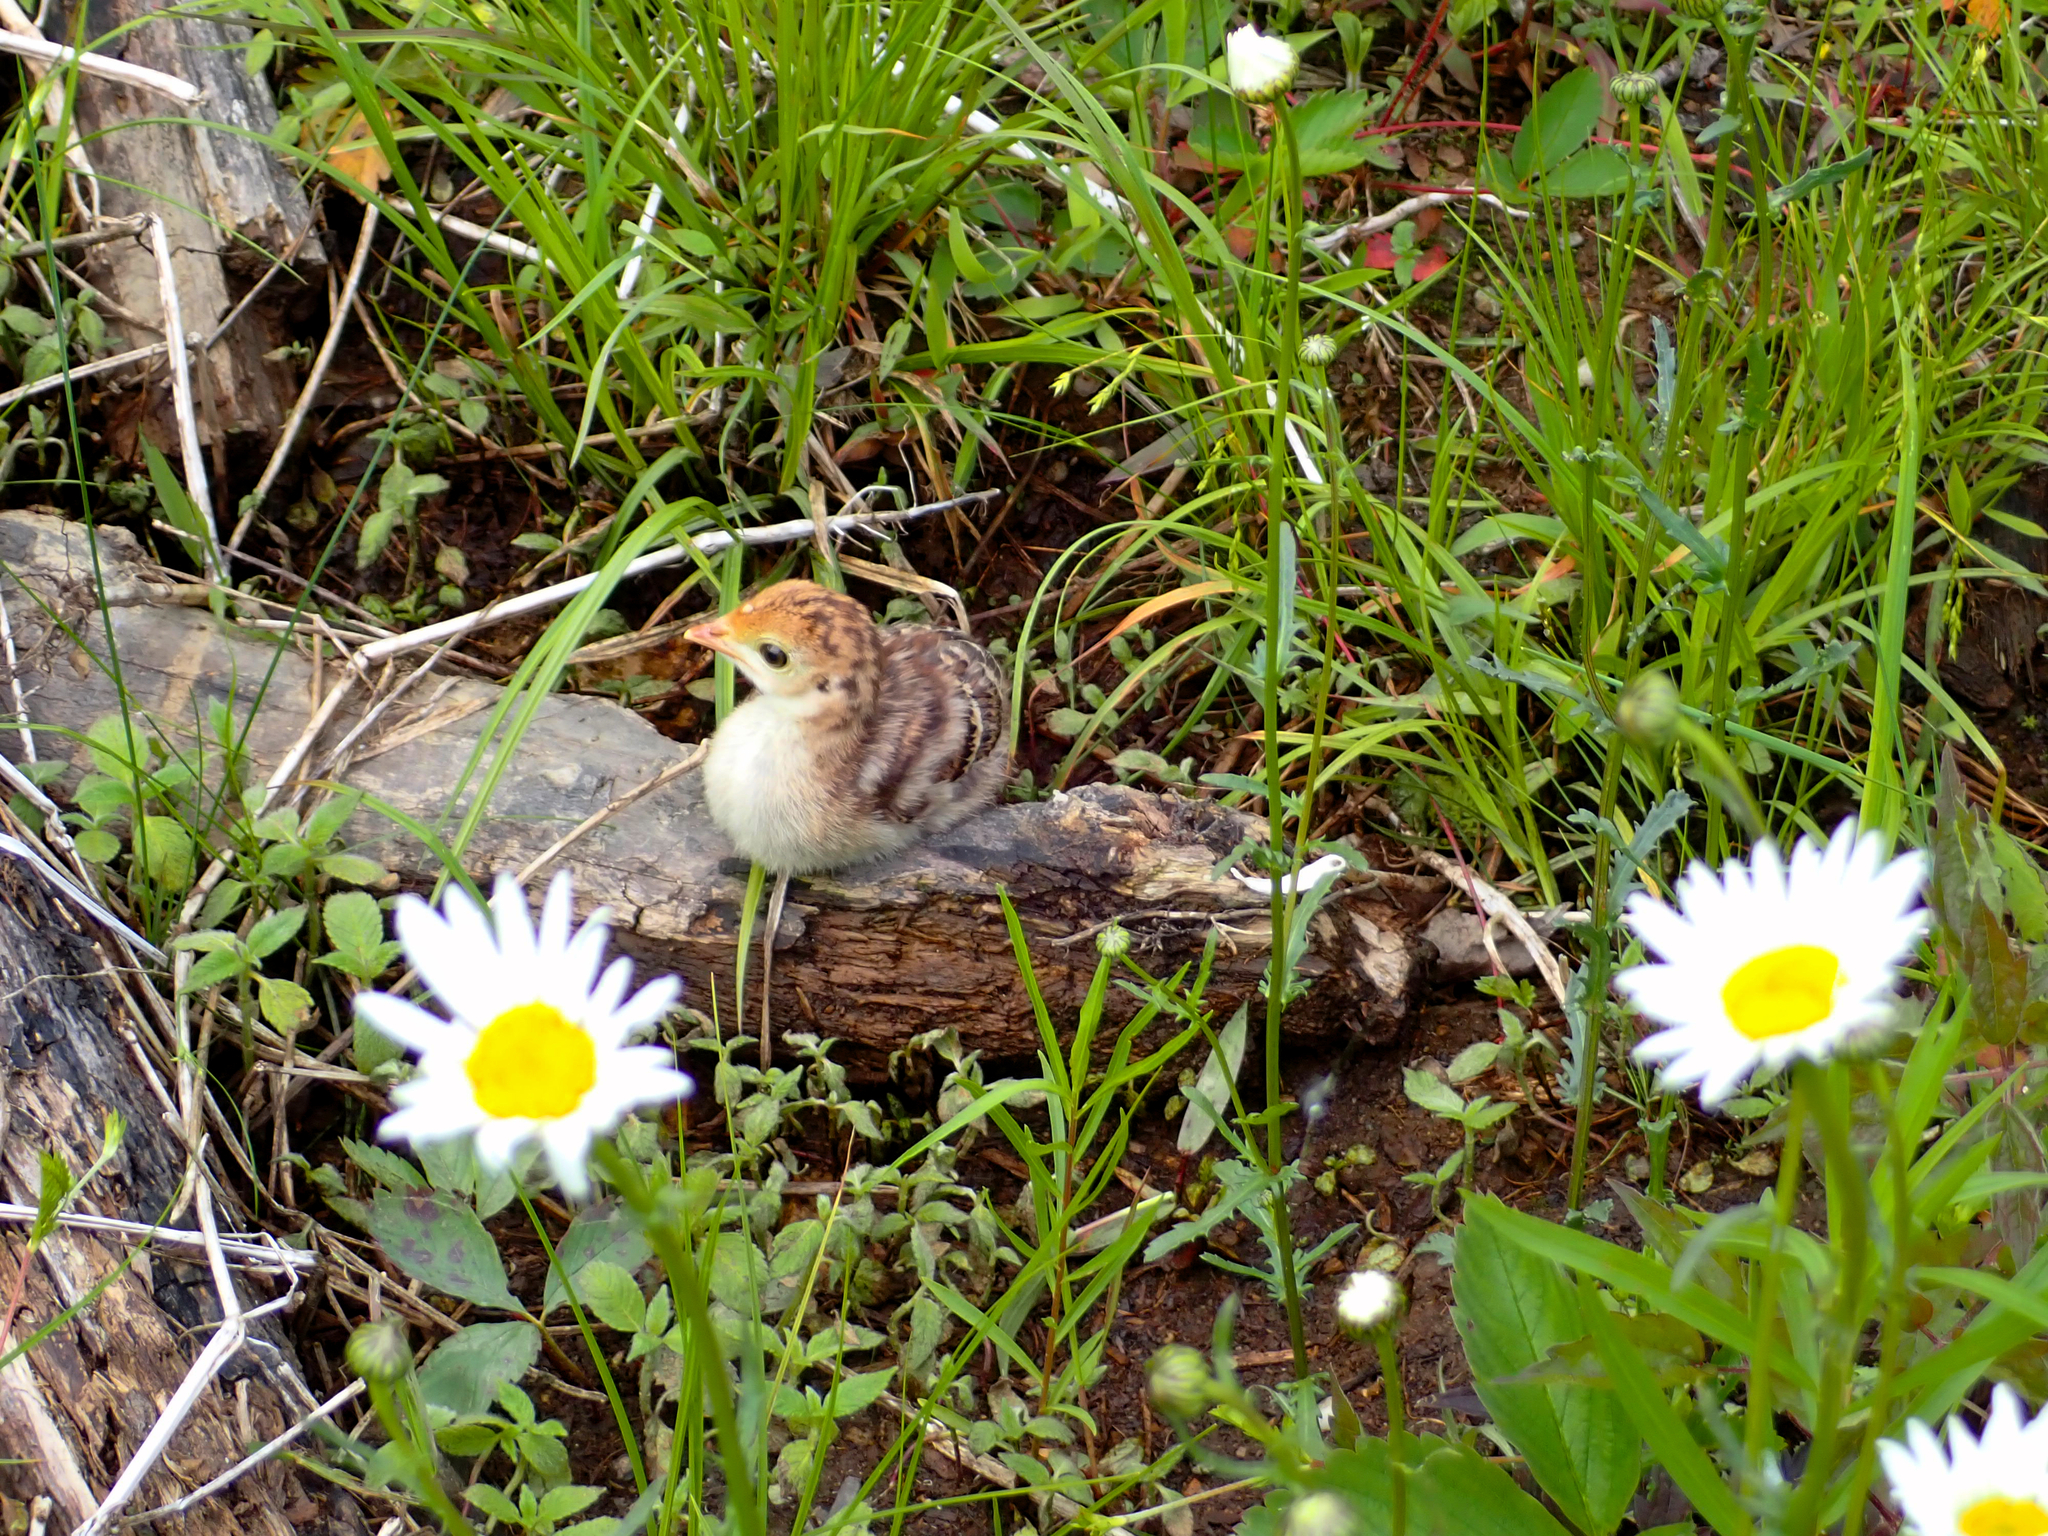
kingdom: Animalia
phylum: Chordata
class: Aves
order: Galliformes
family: Phasianidae
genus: Meleagris
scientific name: Meleagris gallopavo
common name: Wild turkey
